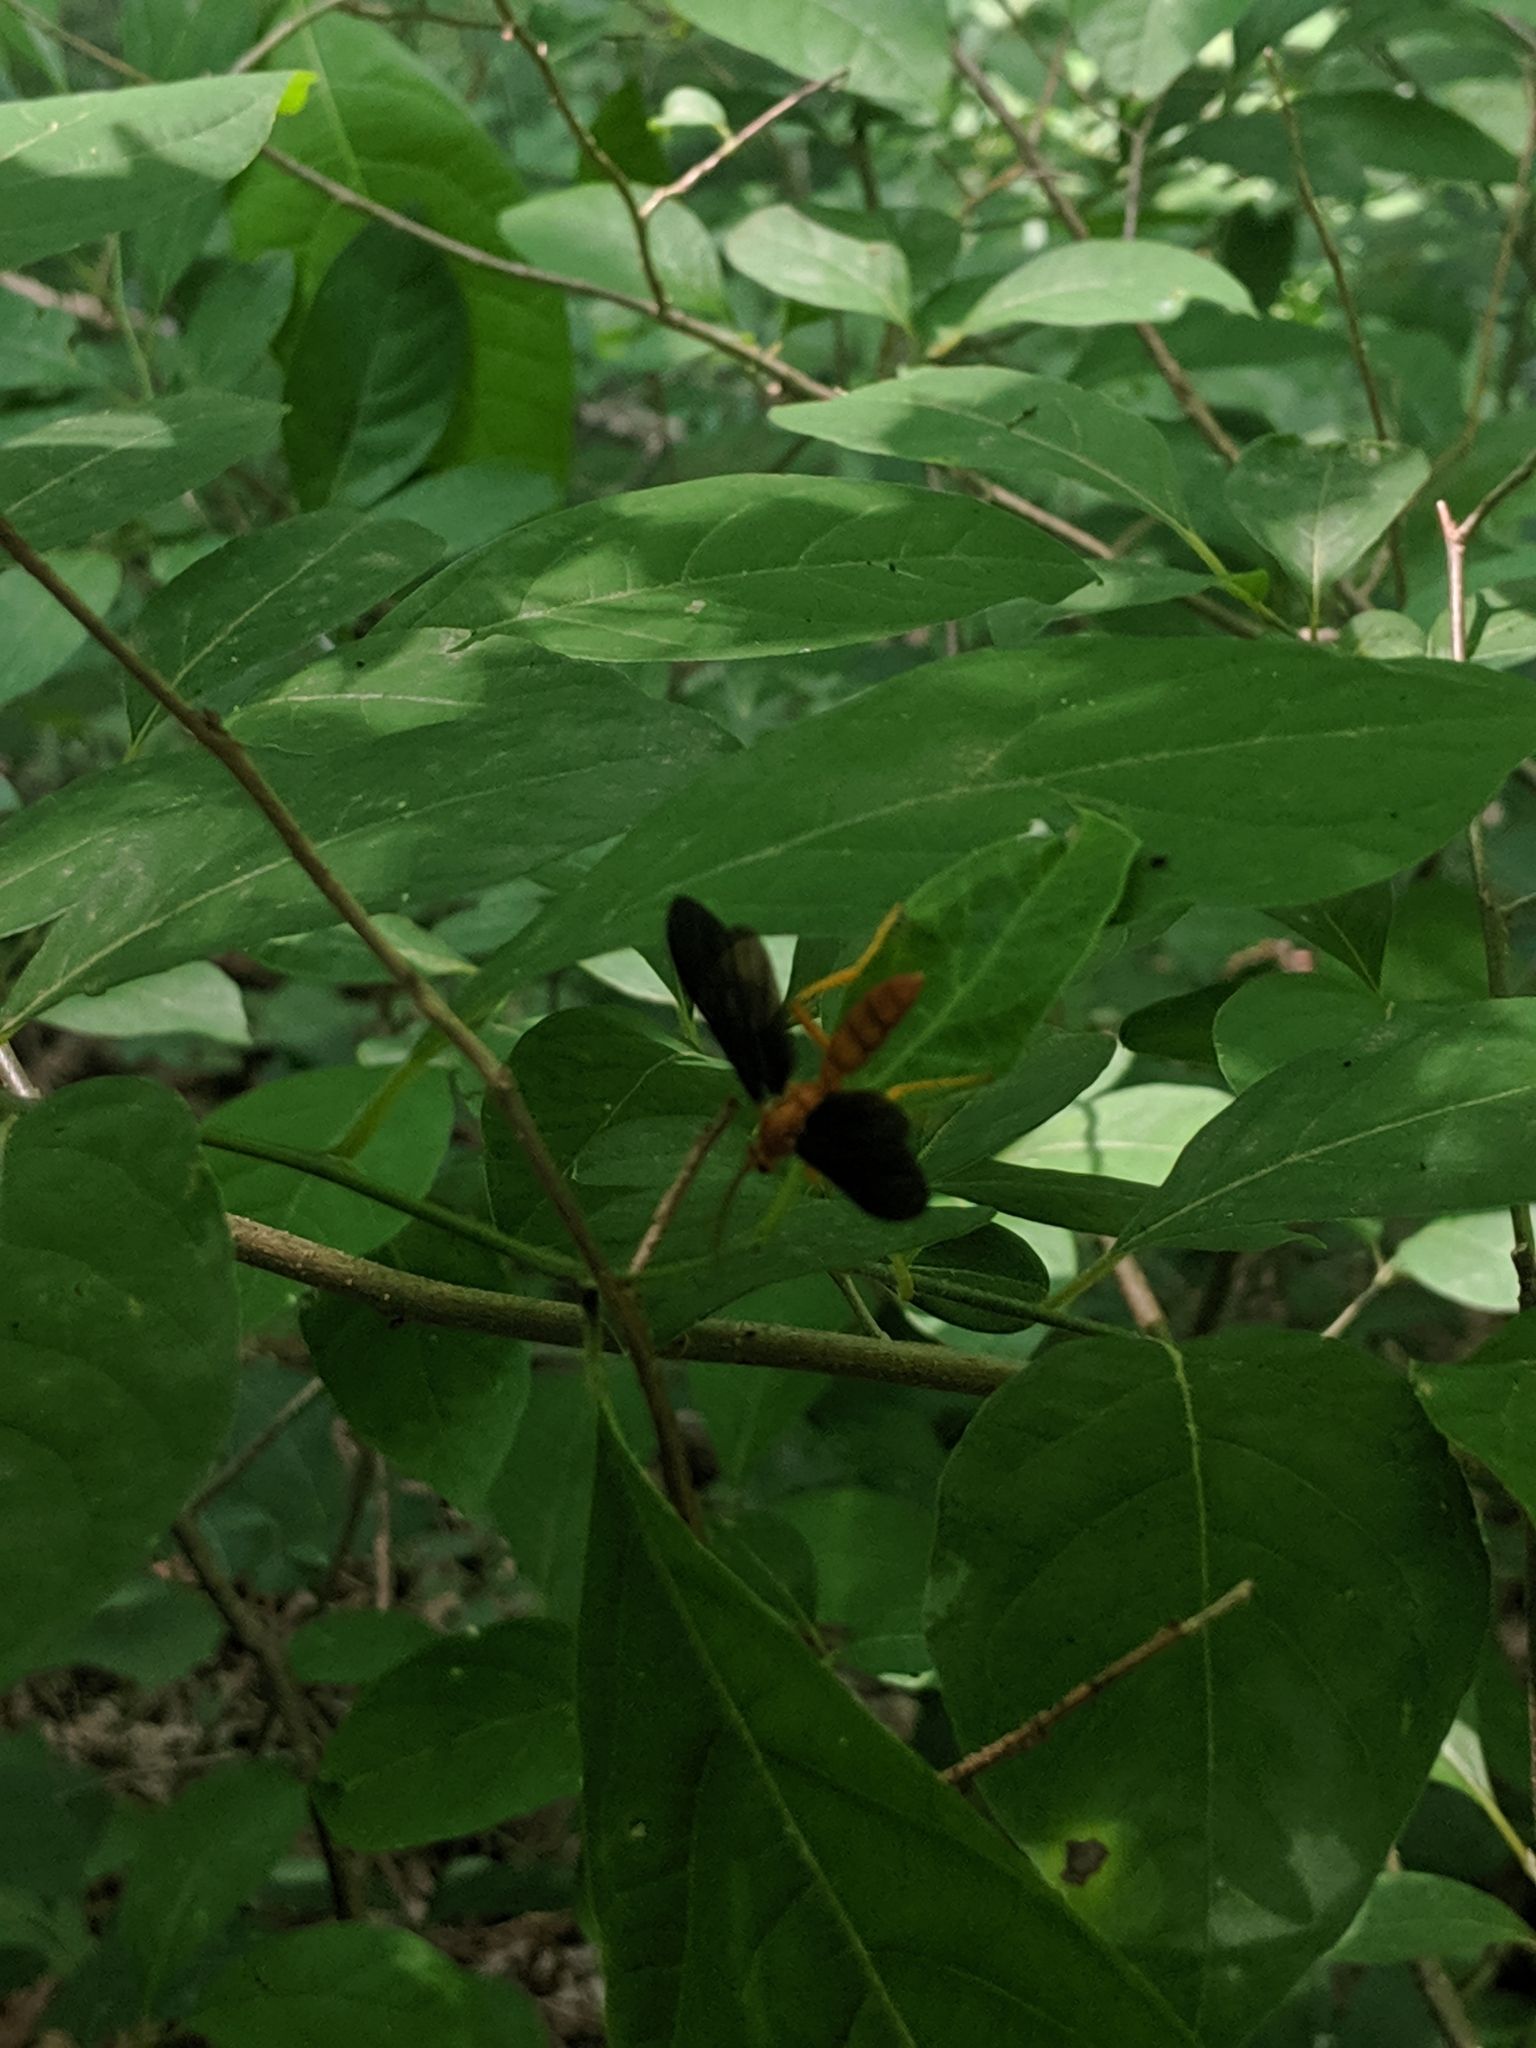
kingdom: Animalia
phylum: Arthropoda
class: Insecta
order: Hymenoptera
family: Ichneumonidae
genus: Trogus
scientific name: Trogus pennator
